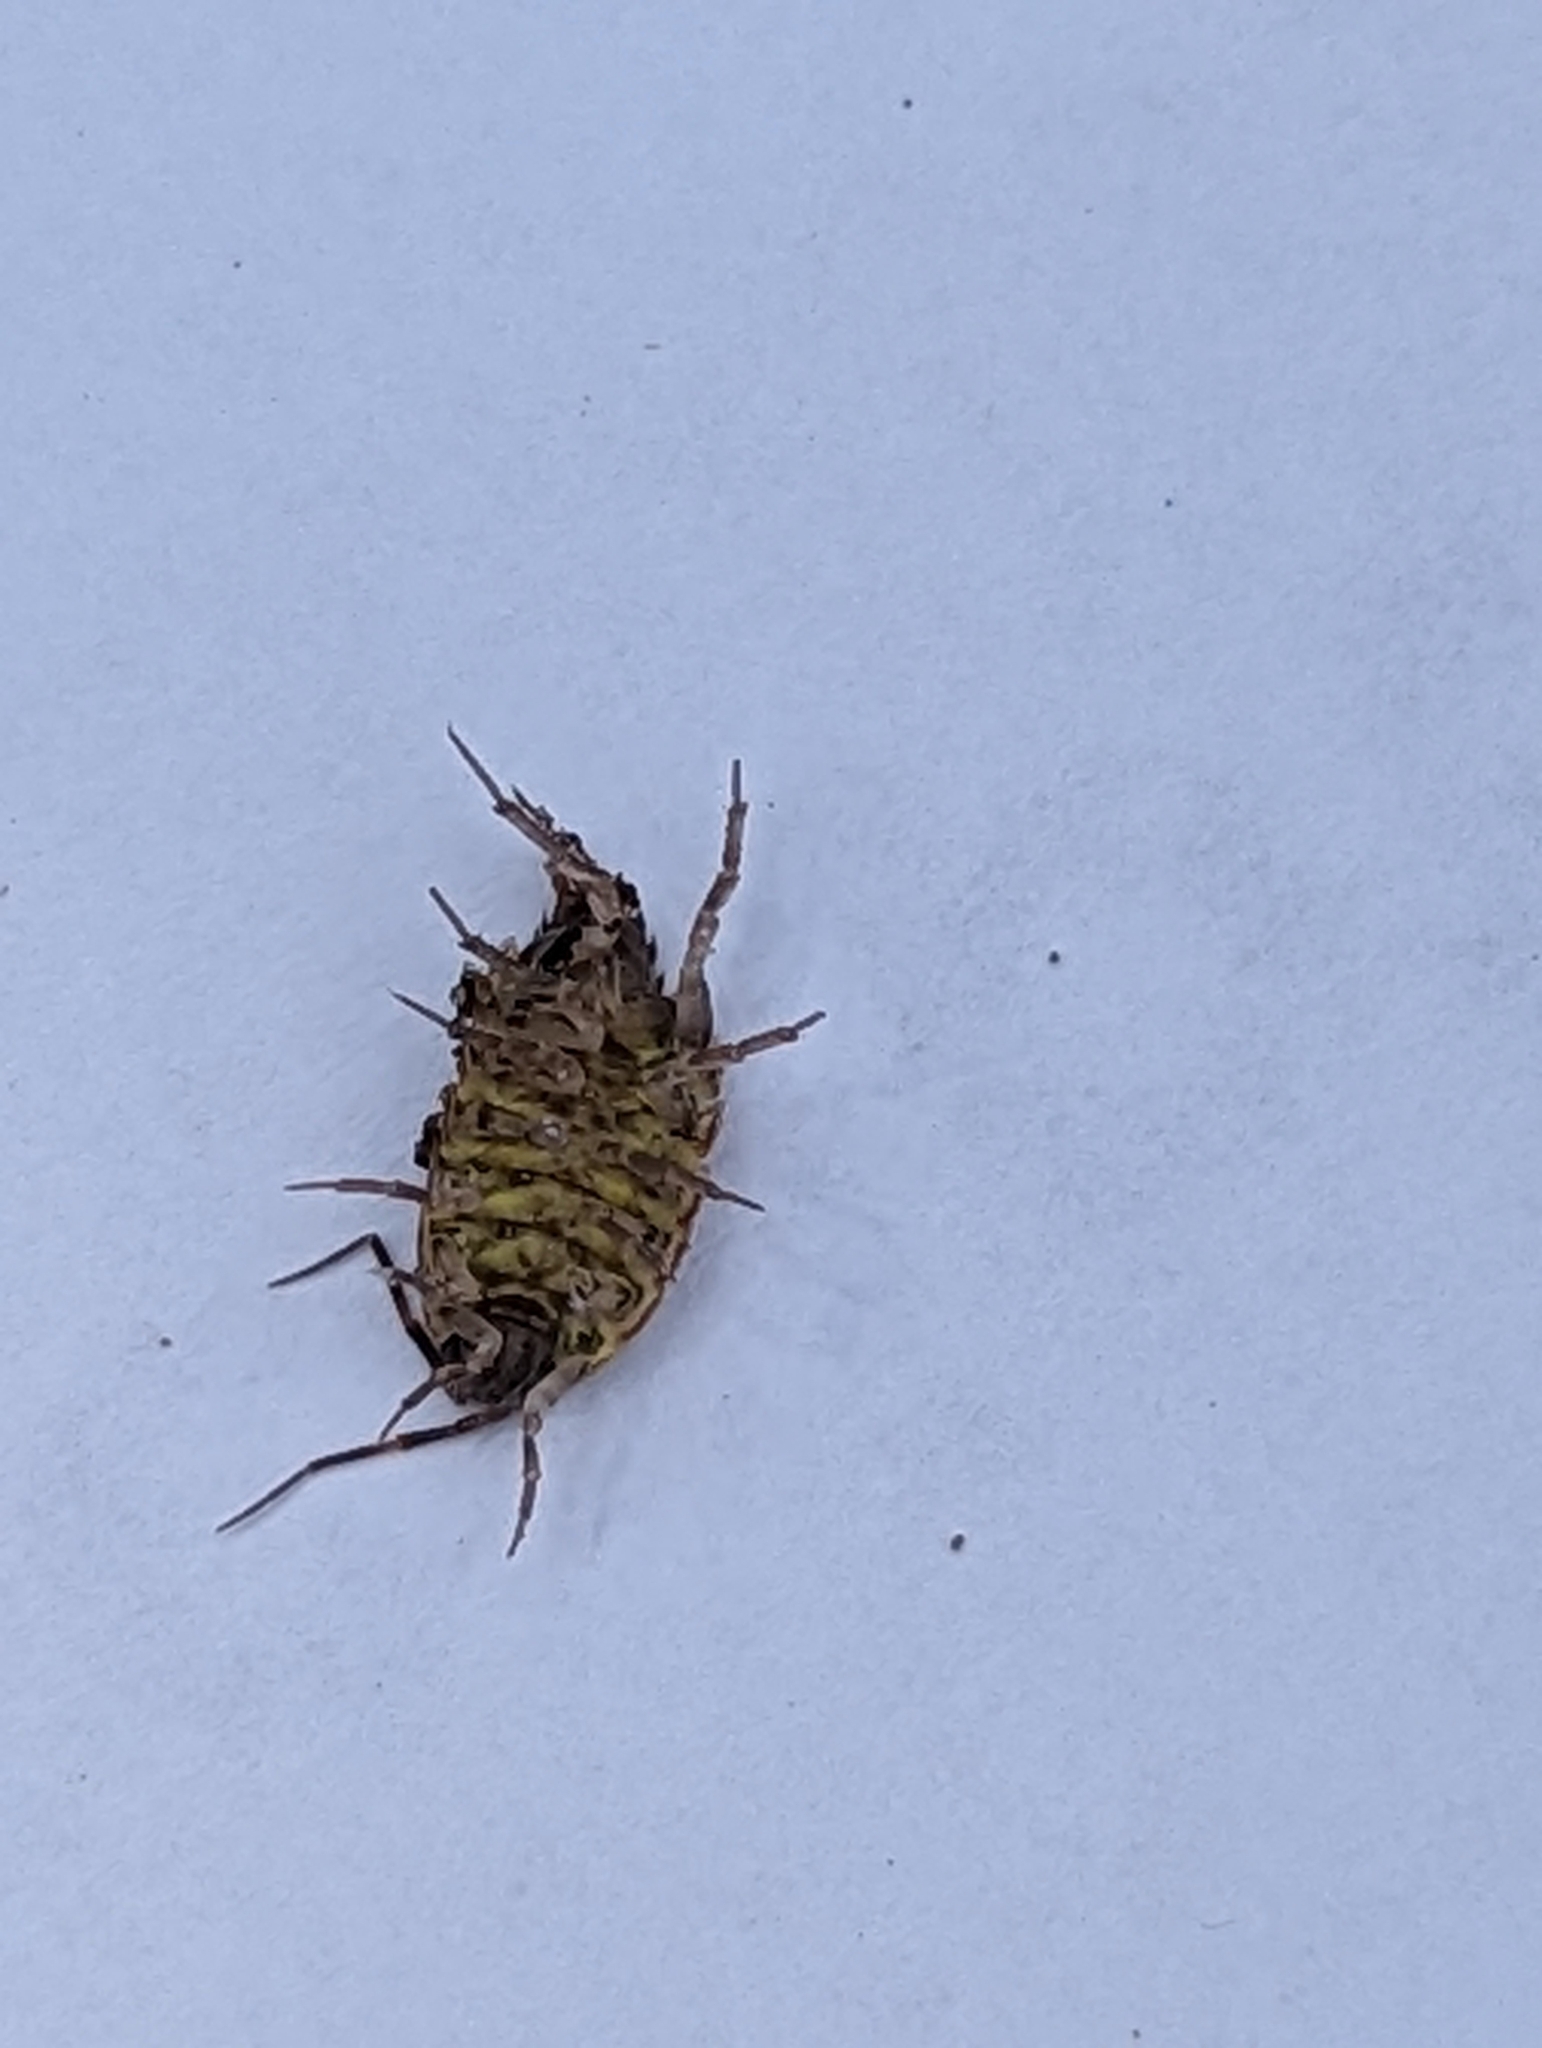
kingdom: Animalia
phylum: Arthropoda
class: Malacostraca
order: Isopoda
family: Philosciidae
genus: Philoscia
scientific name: Philoscia muscorum
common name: Common striped woodlouse
